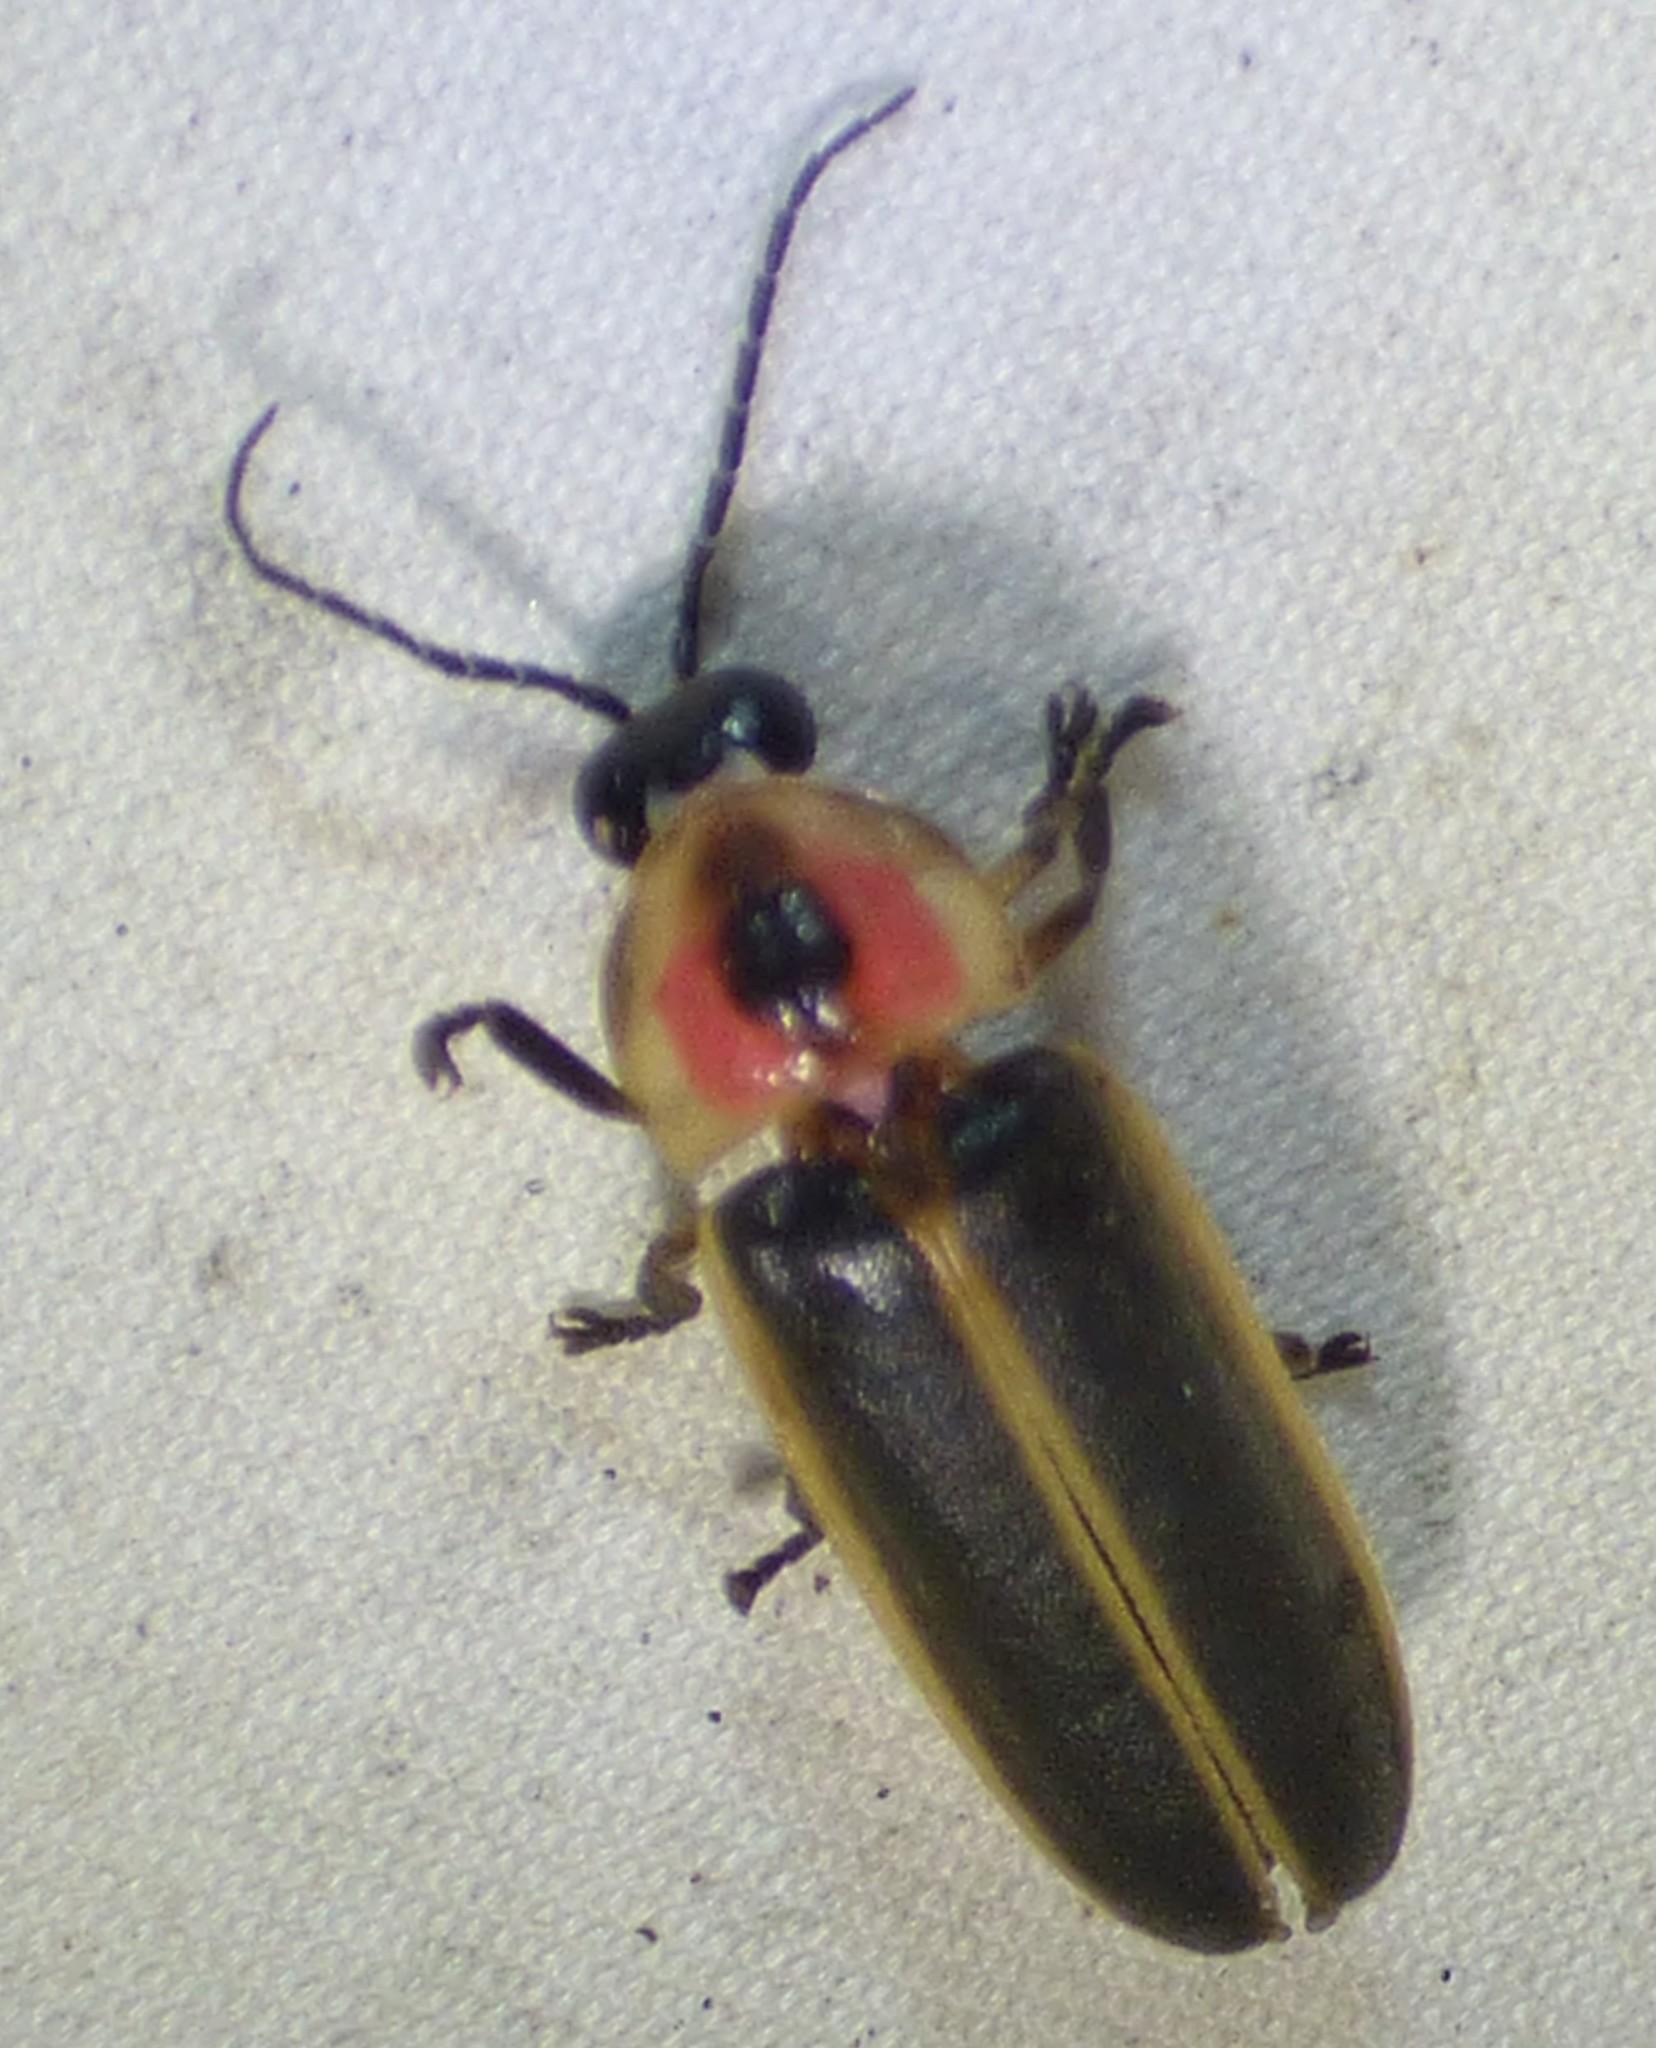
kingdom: Animalia
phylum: Arthropoda
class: Insecta
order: Coleoptera
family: Lampyridae
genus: Photinus
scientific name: Photinus pyralis
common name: Big dipper firefly
